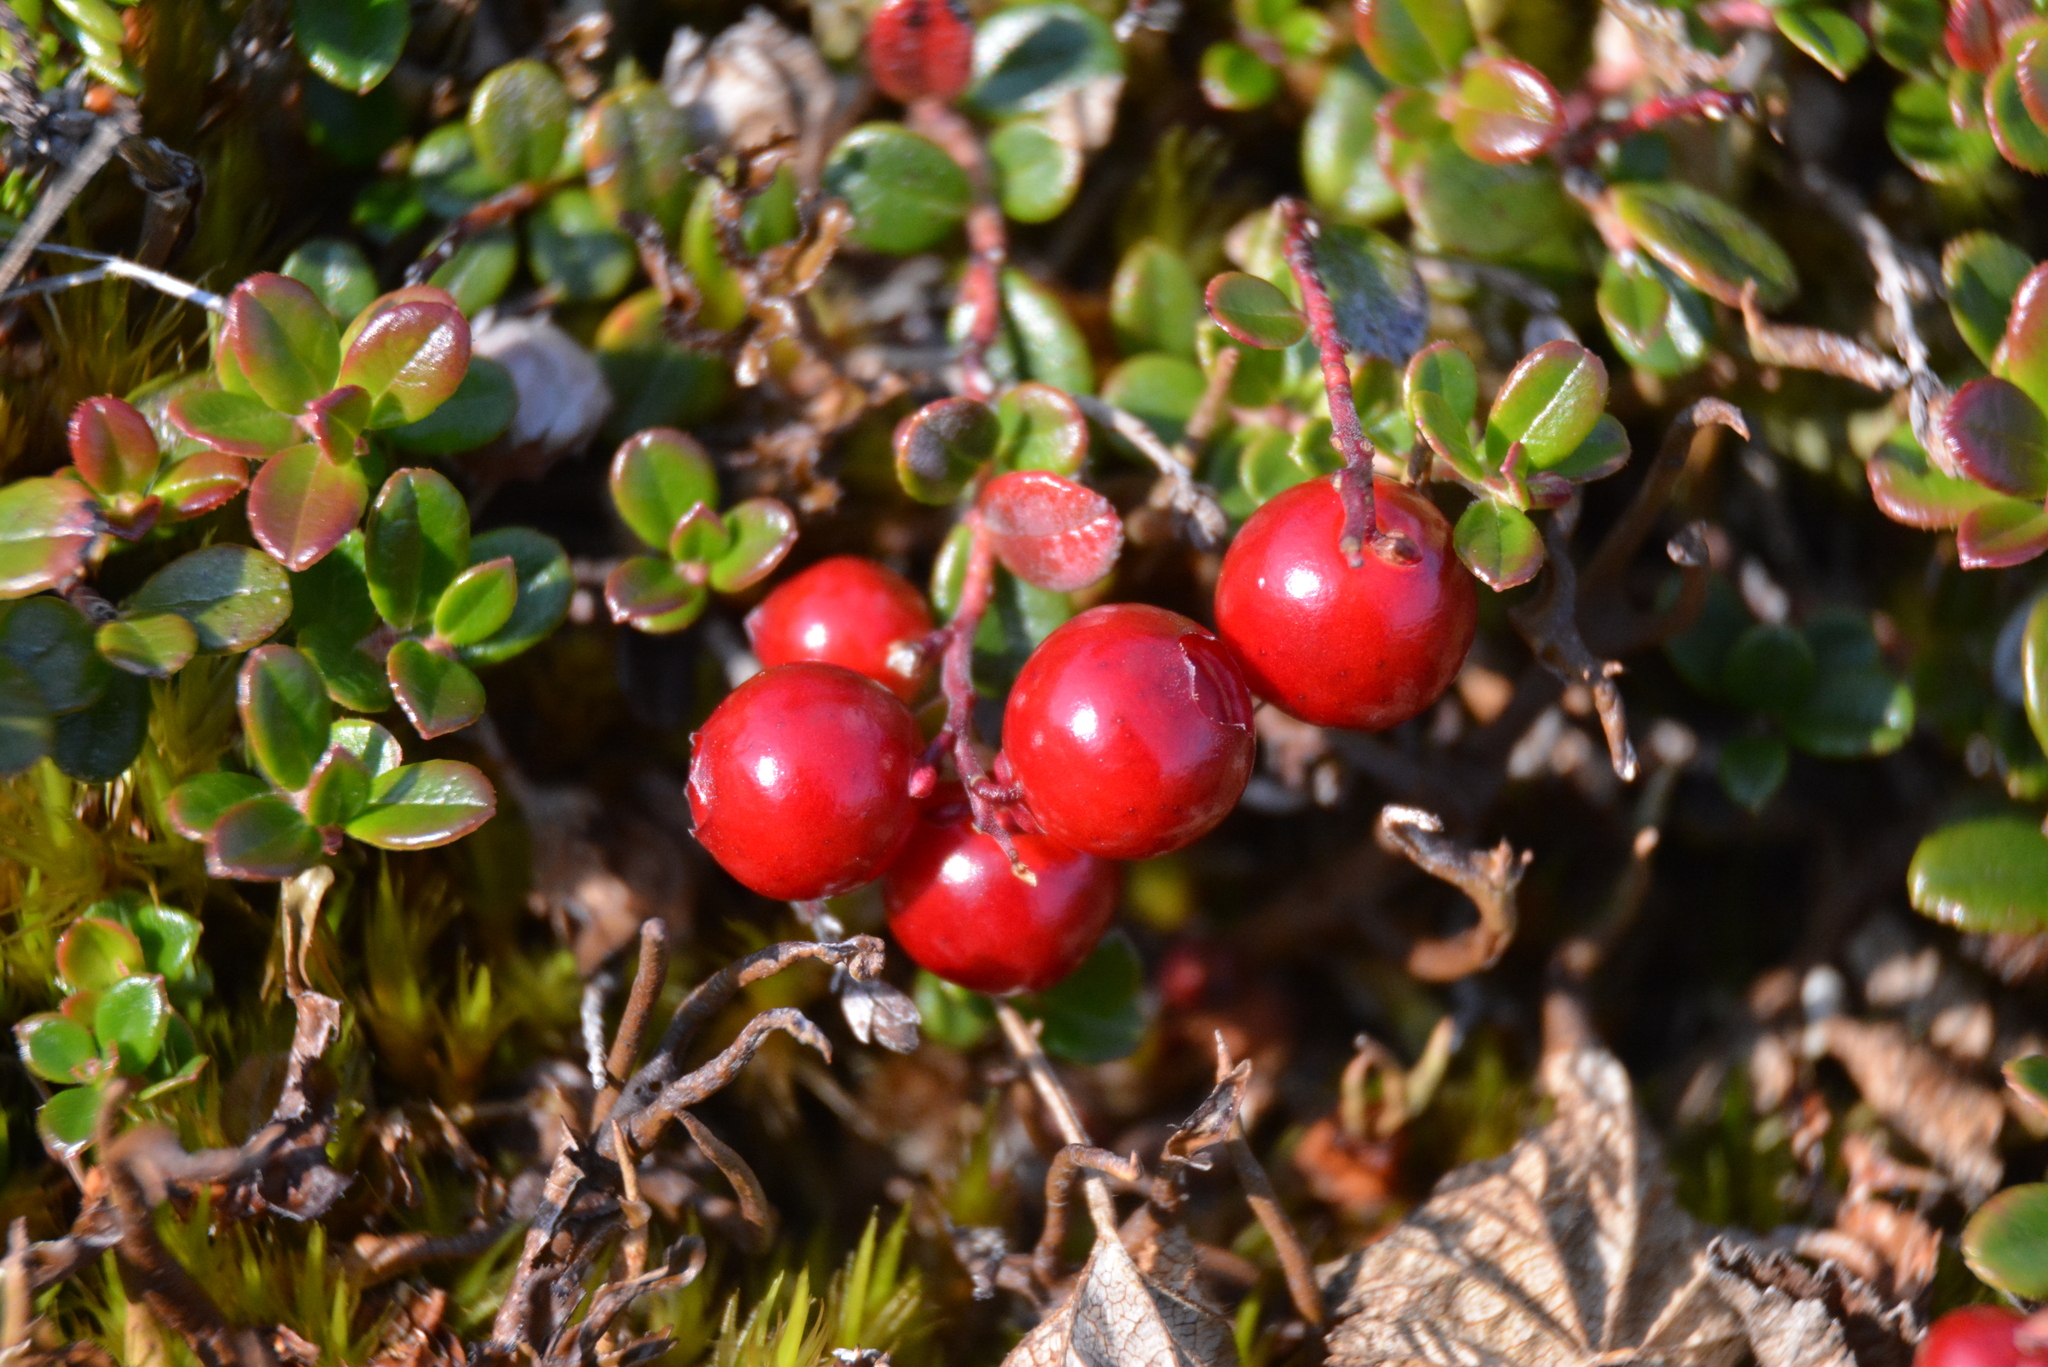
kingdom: Plantae
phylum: Tracheophyta
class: Magnoliopsida
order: Ericales
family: Ericaceae
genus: Vaccinium
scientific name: Vaccinium vitis-idaea
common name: Cowberry
